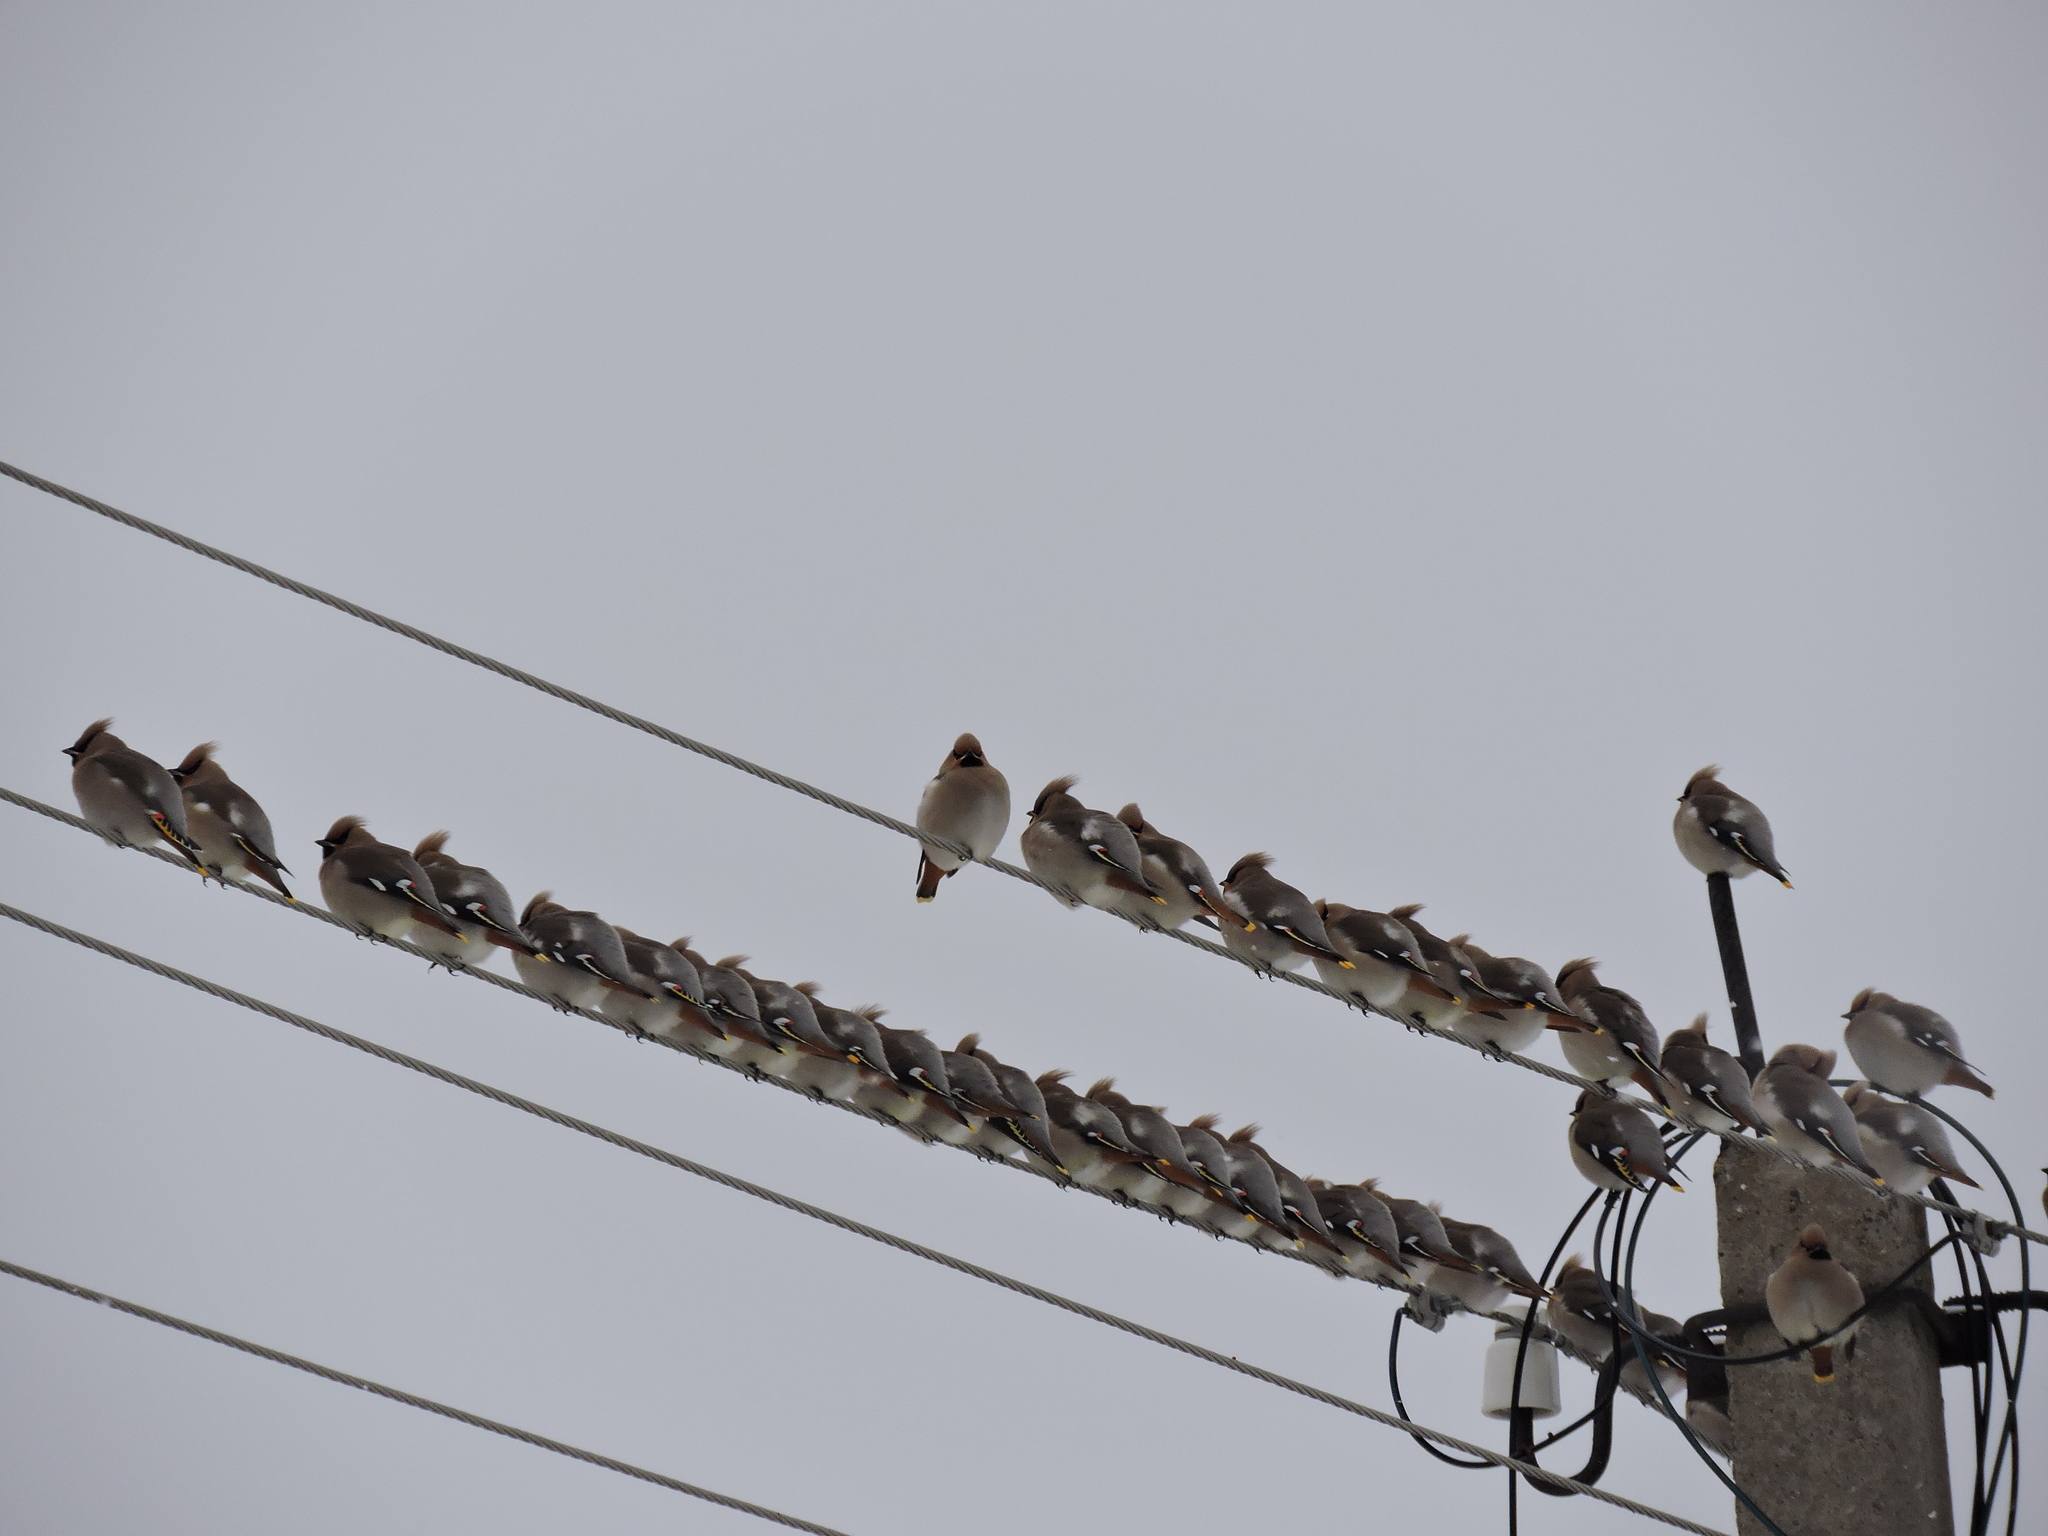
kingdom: Animalia
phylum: Chordata
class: Aves
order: Passeriformes
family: Bombycillidae
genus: Bombycilla
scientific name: Bombycilla garrulus
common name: Bohemian waxwing
